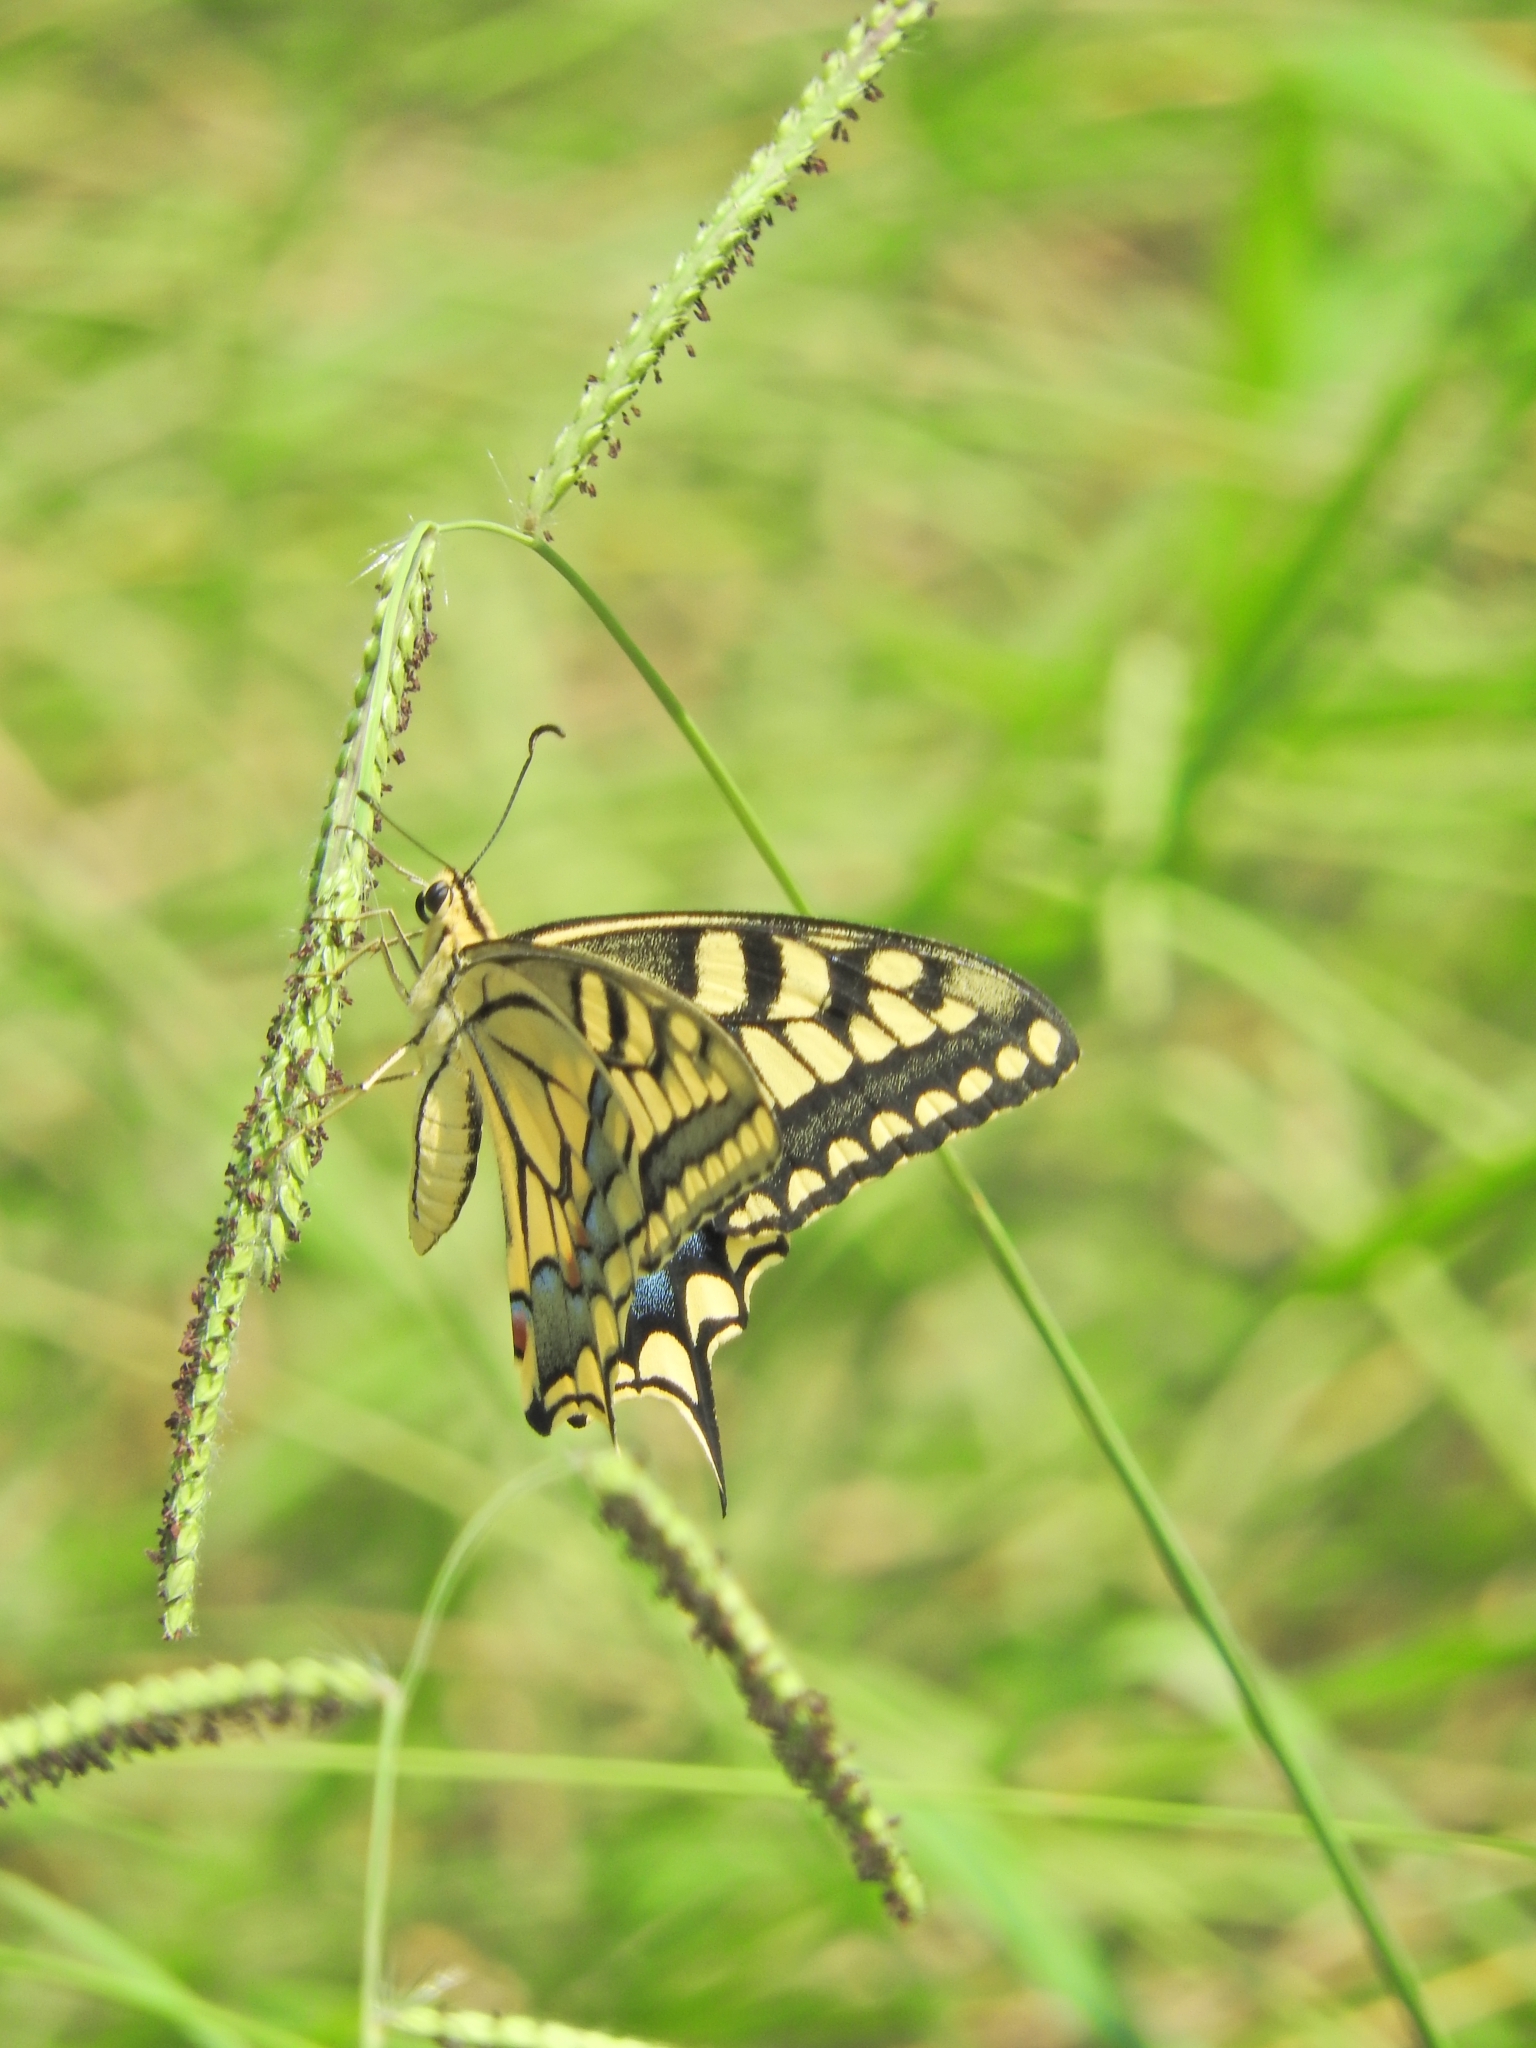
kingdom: Animalia
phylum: Arthropoda
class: Insecta
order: Lepidoptera
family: Papilionidae
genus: Papilio
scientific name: Papilio machaon
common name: Swallowtail
